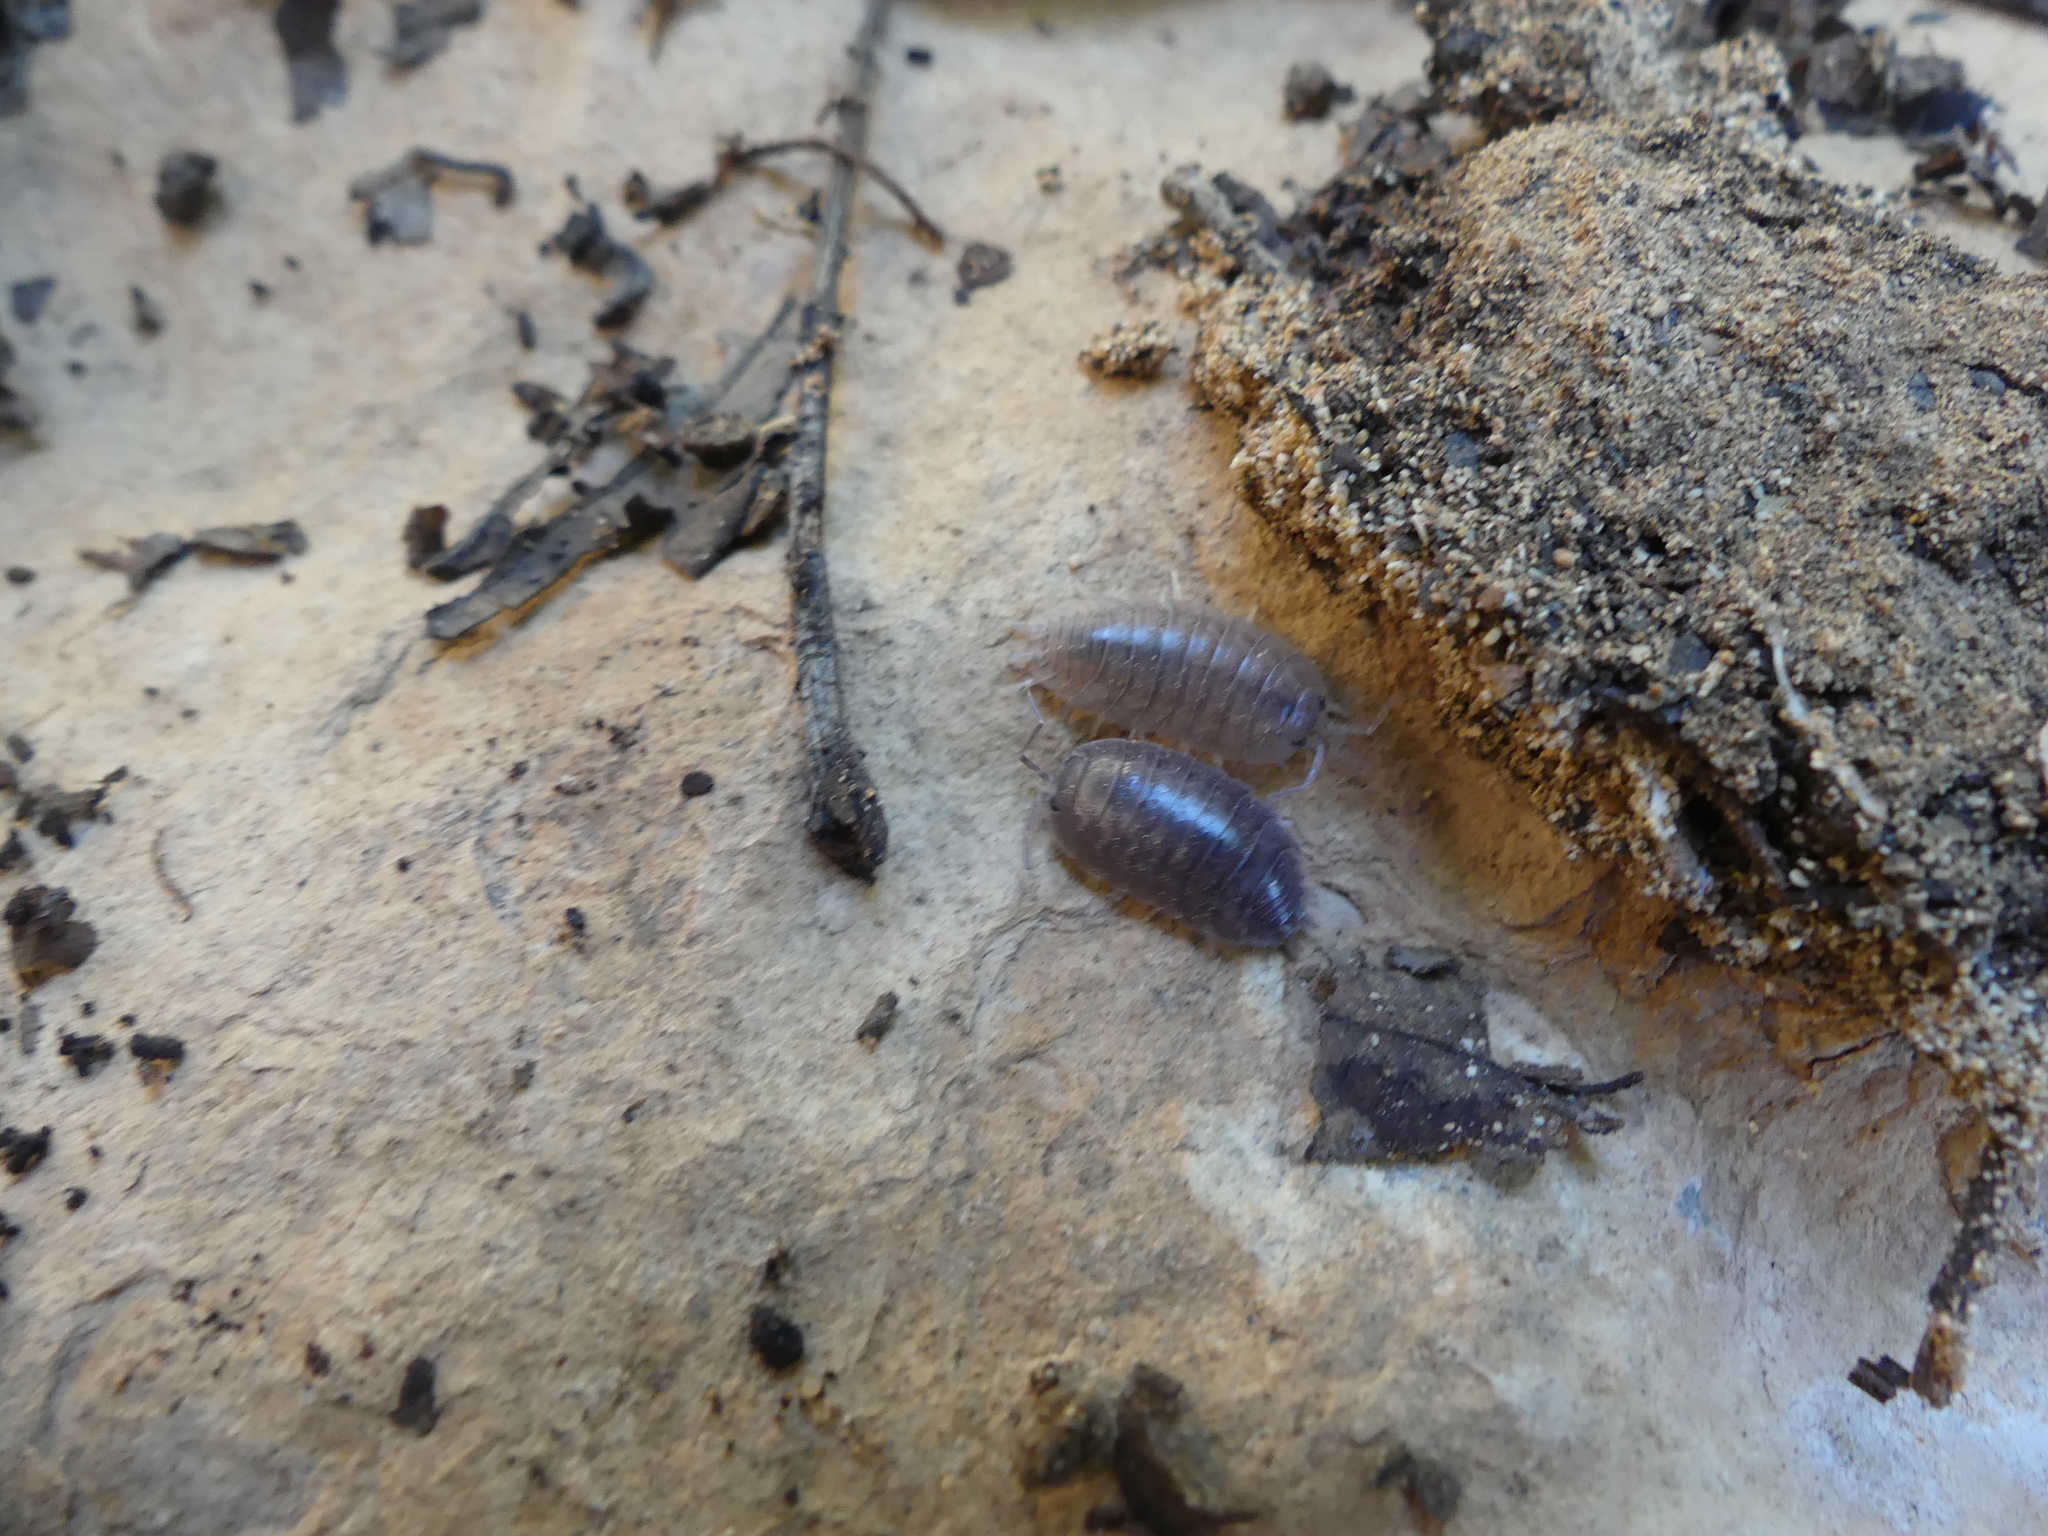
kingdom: Animalia
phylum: Arthropoda
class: Malacostraca
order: Isopoda
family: Porcellionidae
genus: Porcellio
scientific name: Porcellio laevis
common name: Swift woodlouse
